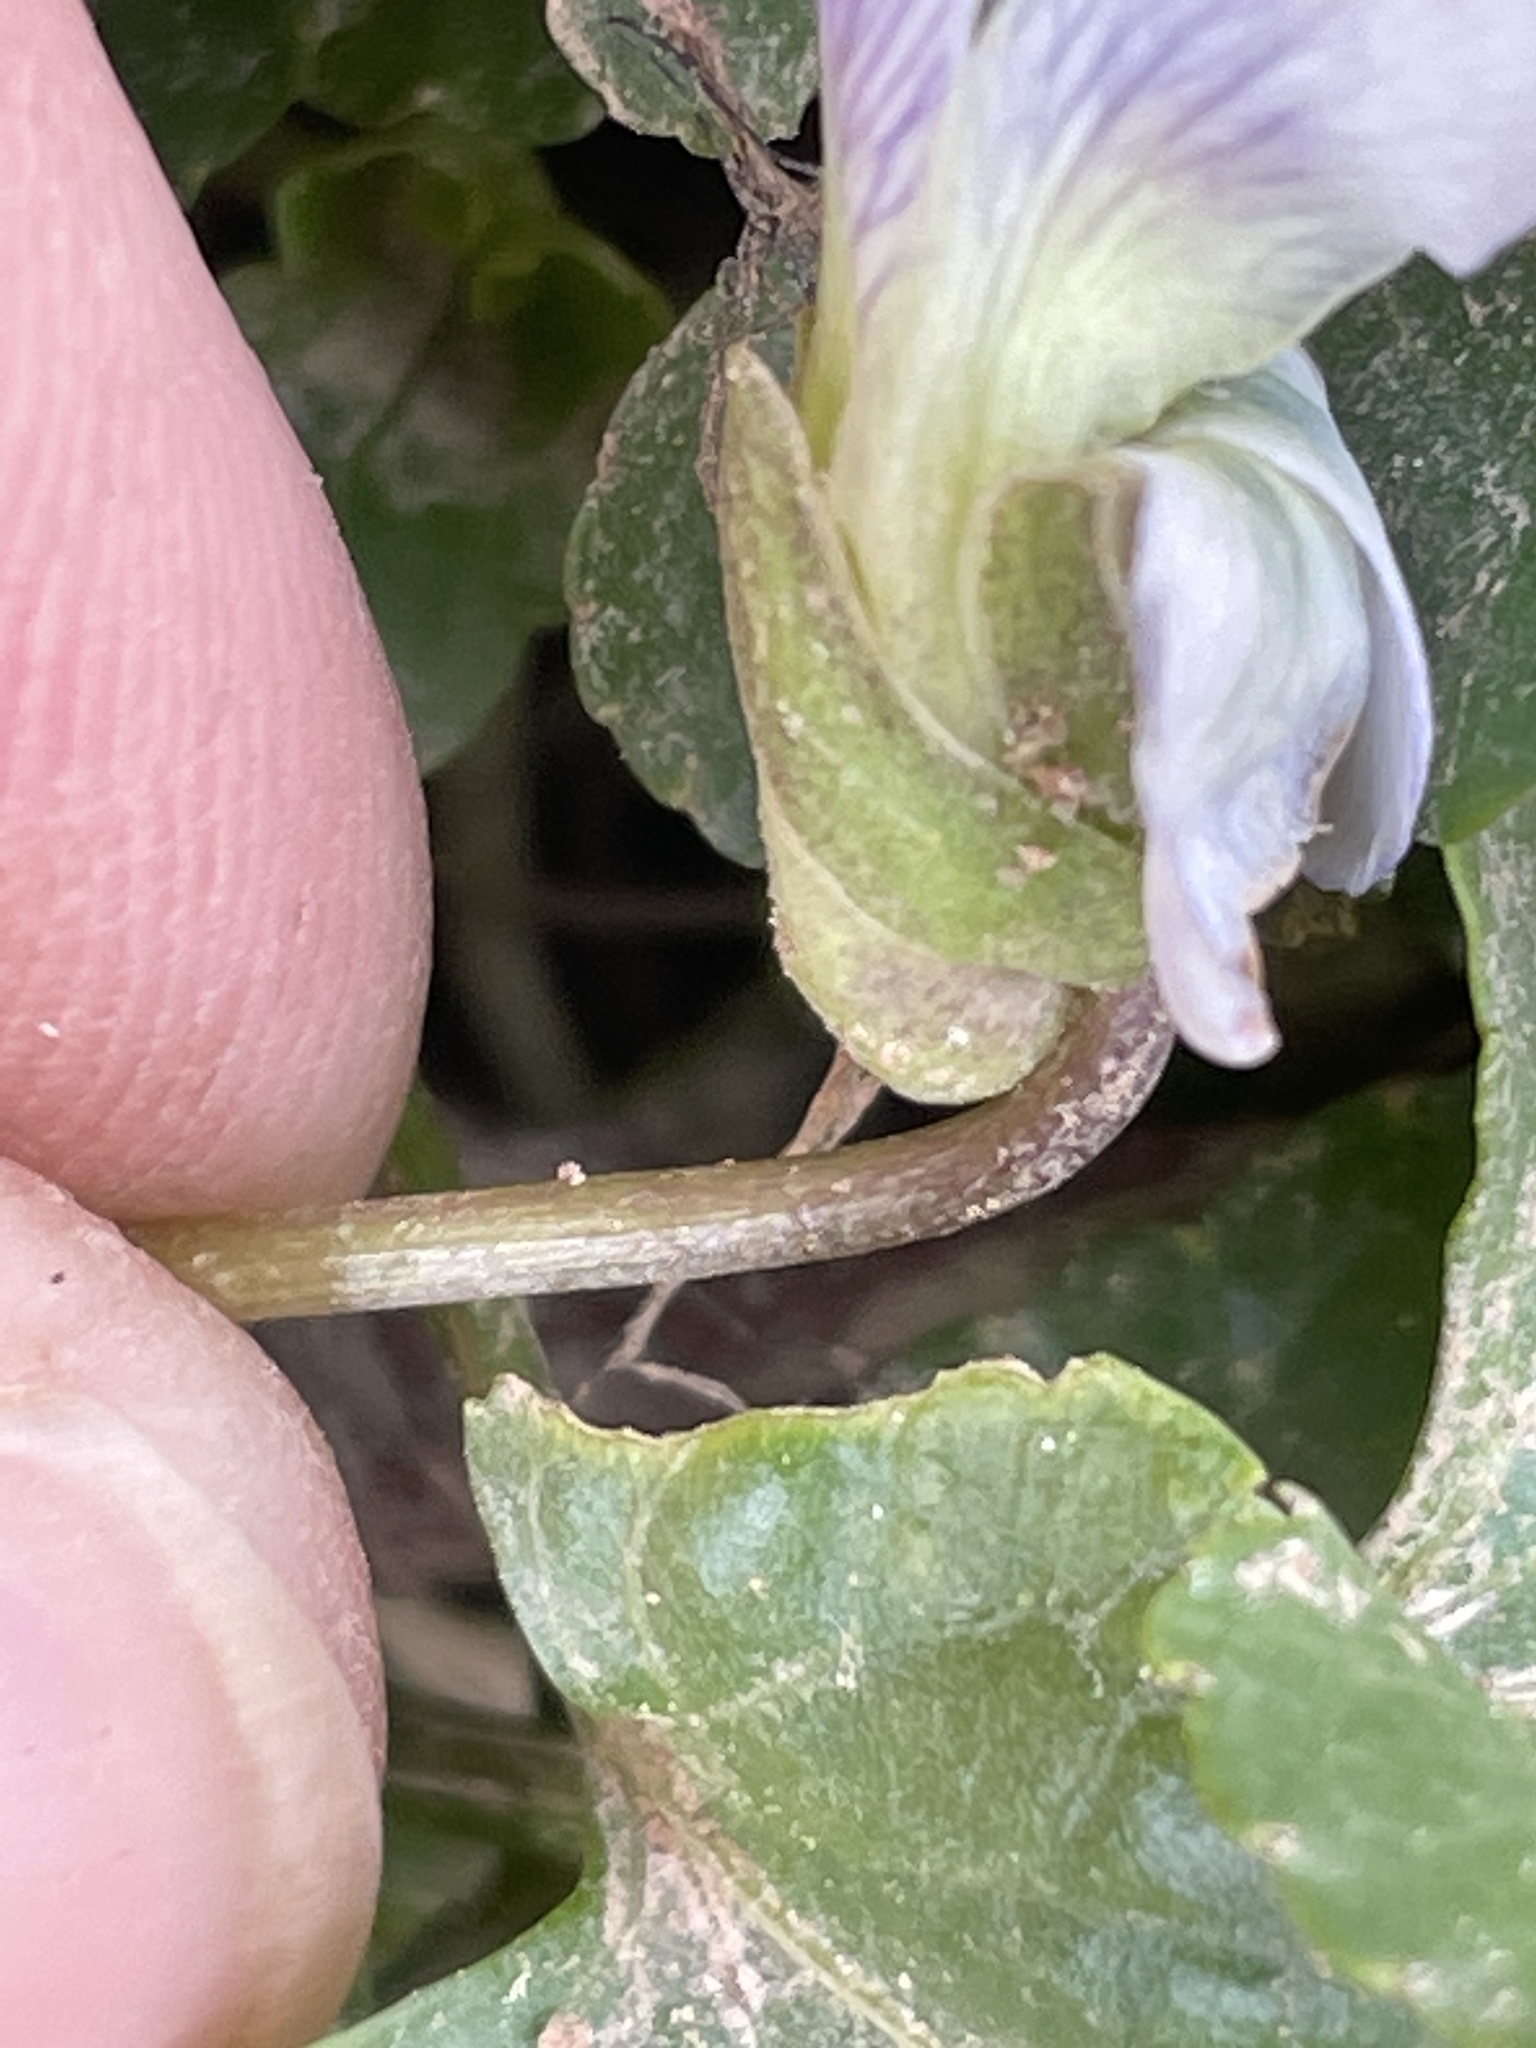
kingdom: Plantae
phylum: Tracheophyta
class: Magnoliopsida
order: Malpighiales
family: Violaceae
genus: Viola
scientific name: Viola sororia
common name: Dooryard violet
